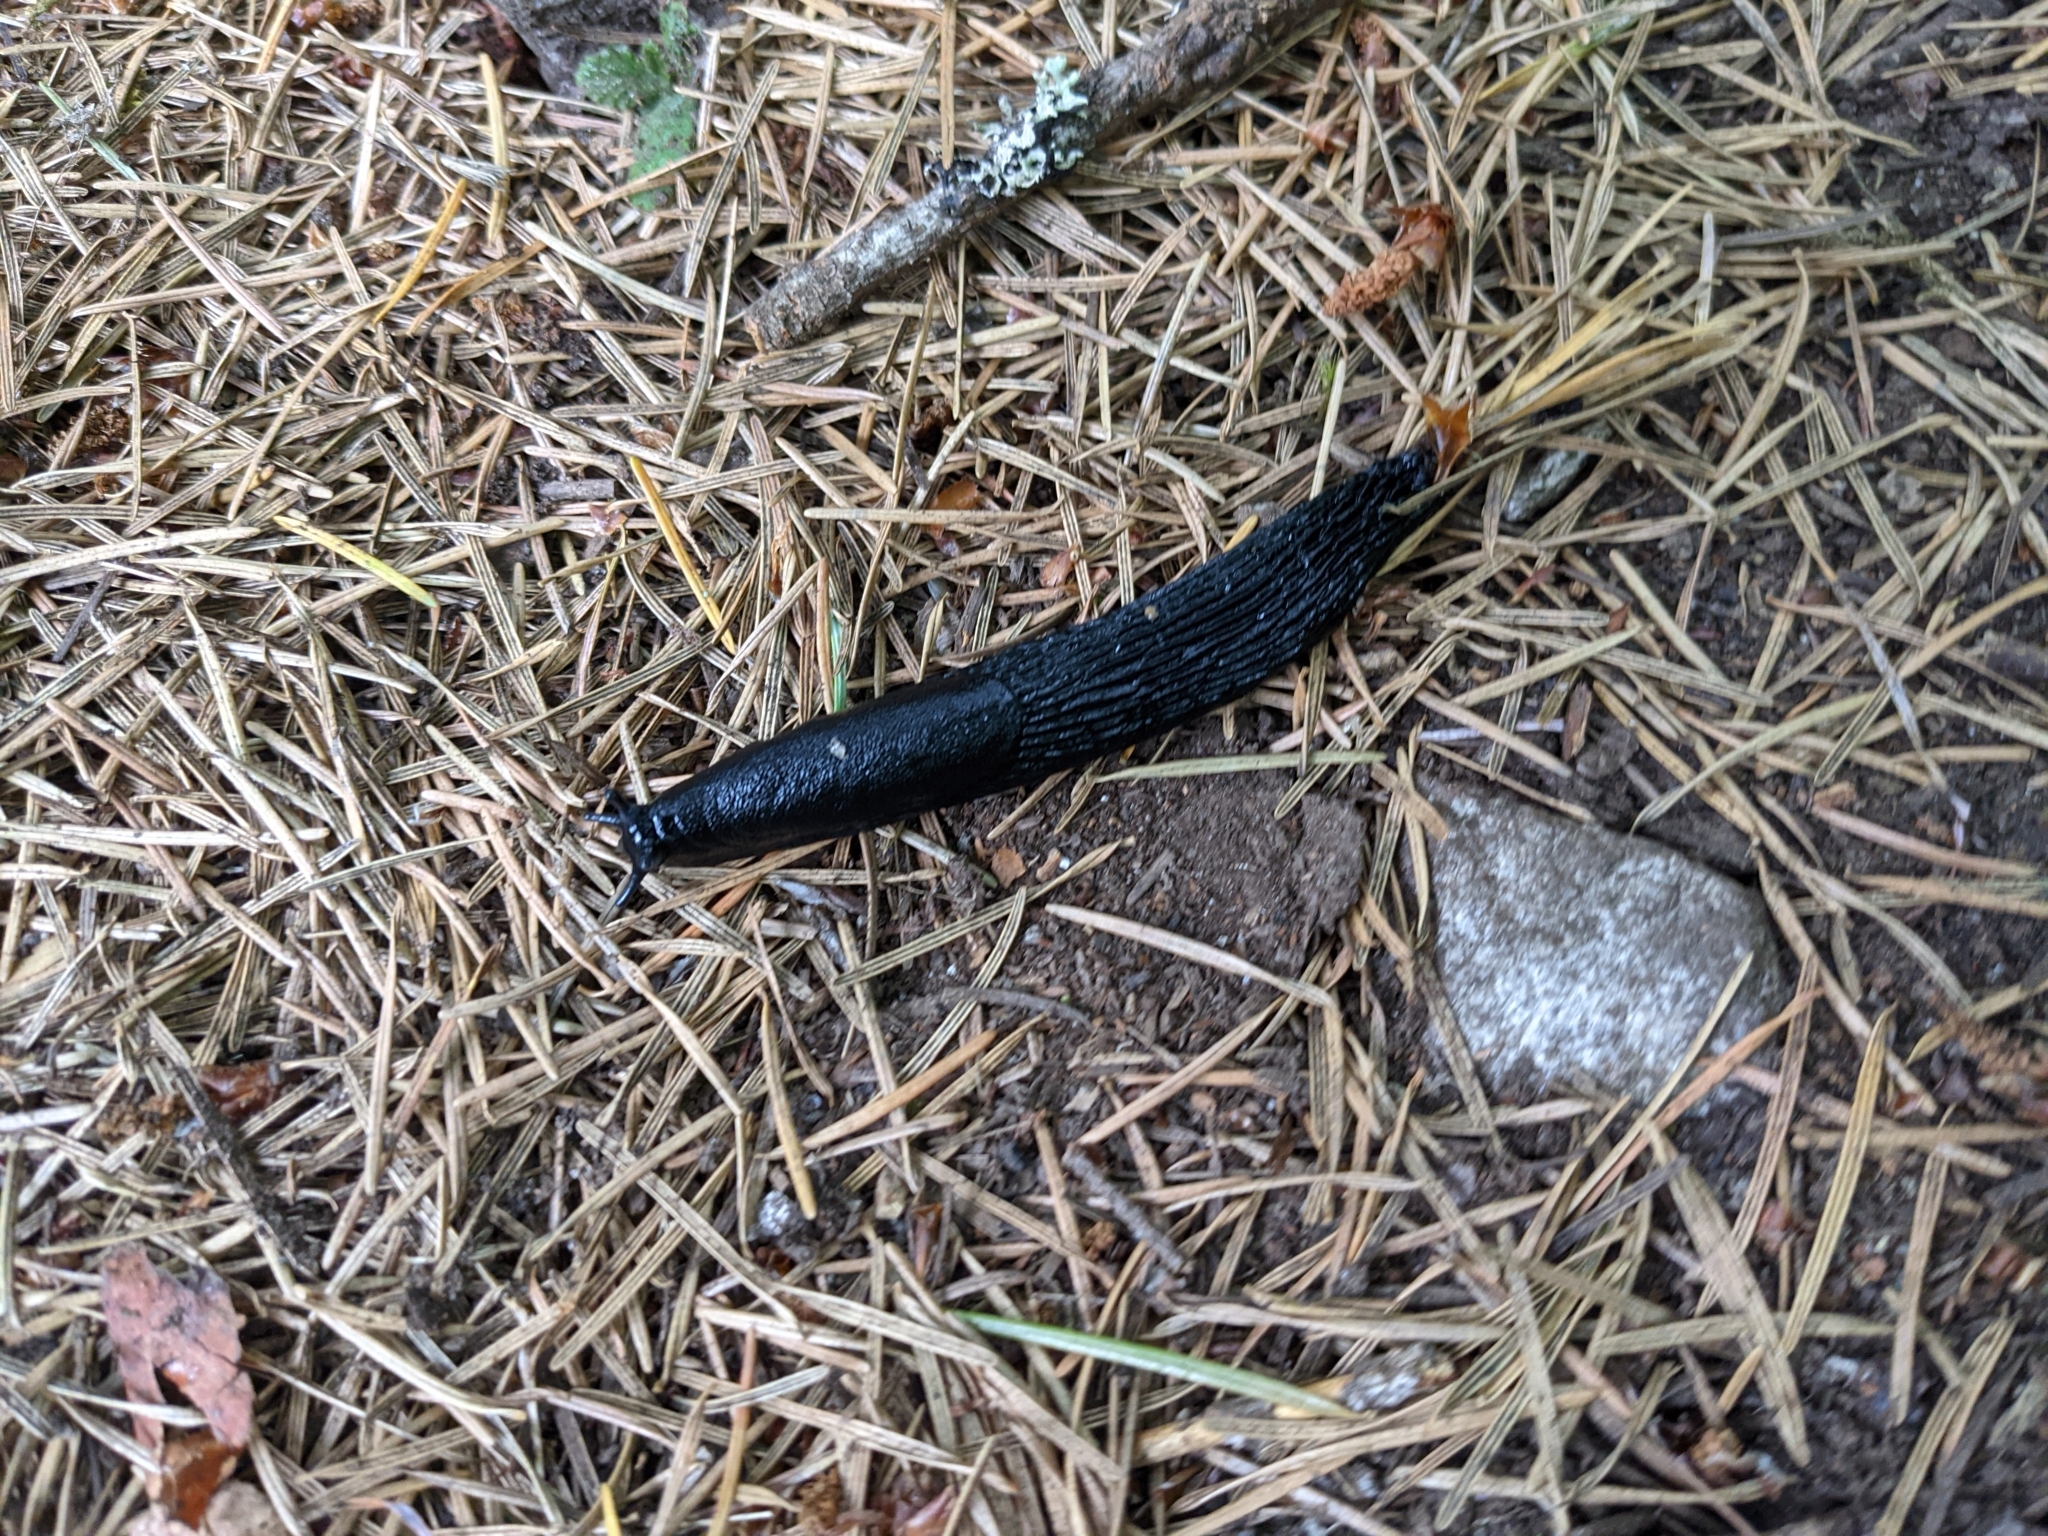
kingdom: Animalia
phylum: Mollusca
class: Gastropoda
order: Stylommatophora
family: Arionidae
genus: Arion
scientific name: Arion
